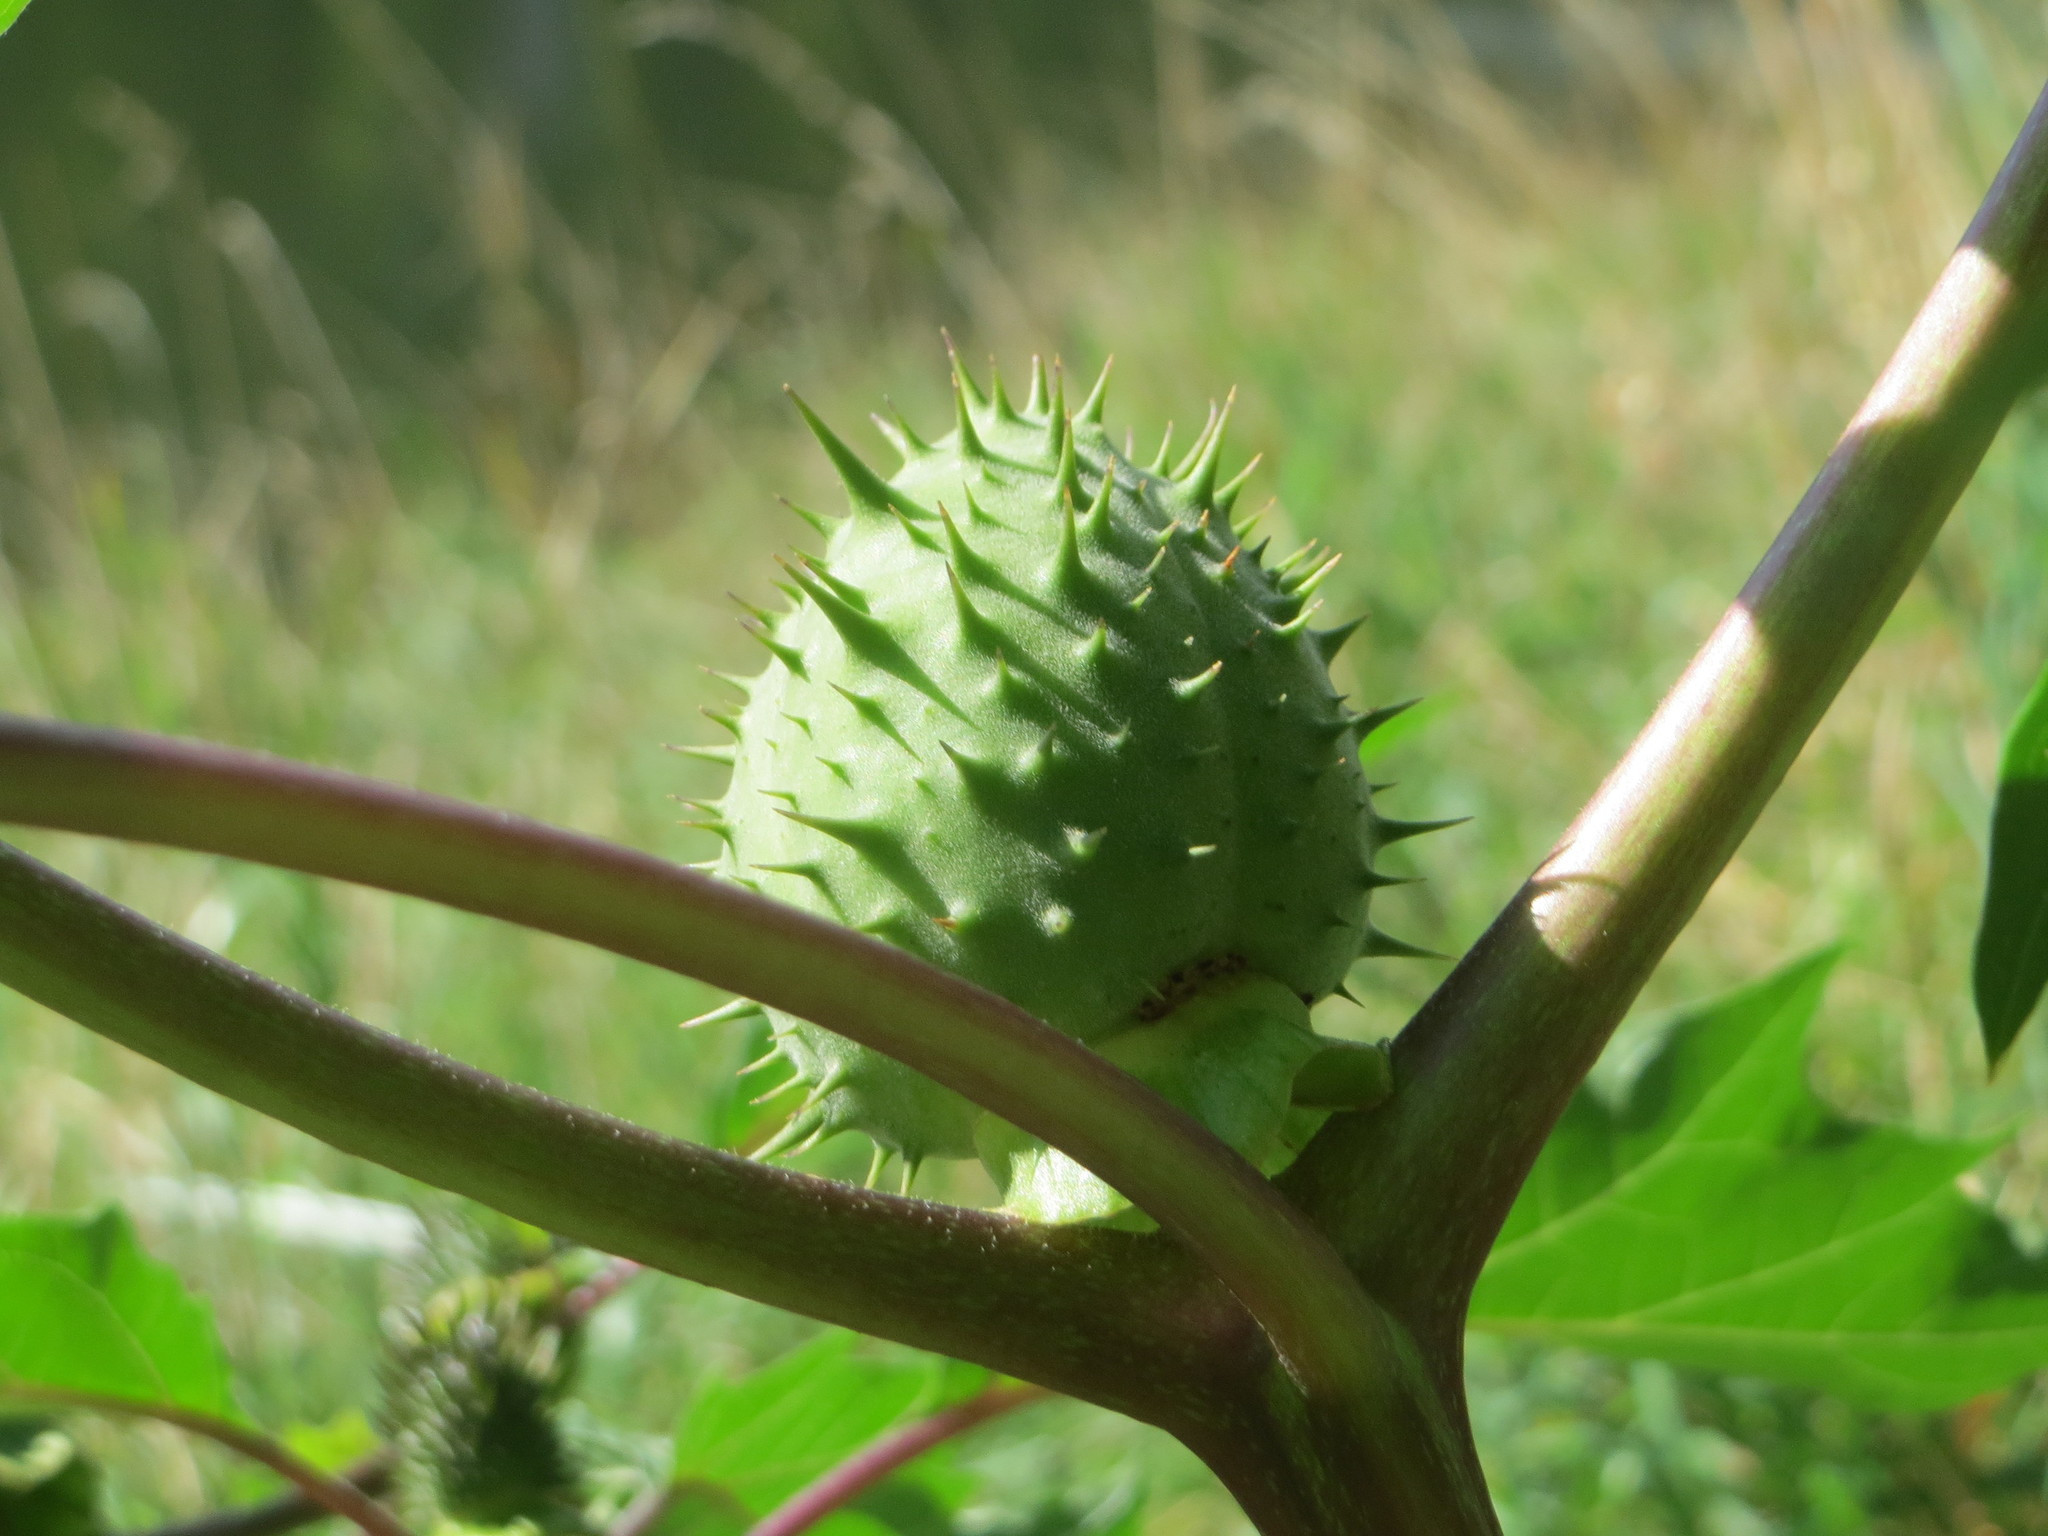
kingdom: Plantae
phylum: Tracheophyta
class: Magnoliopsida
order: Solanales
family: Solanaceae
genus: Datura
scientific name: Datura stramonium
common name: Thorn-apple
